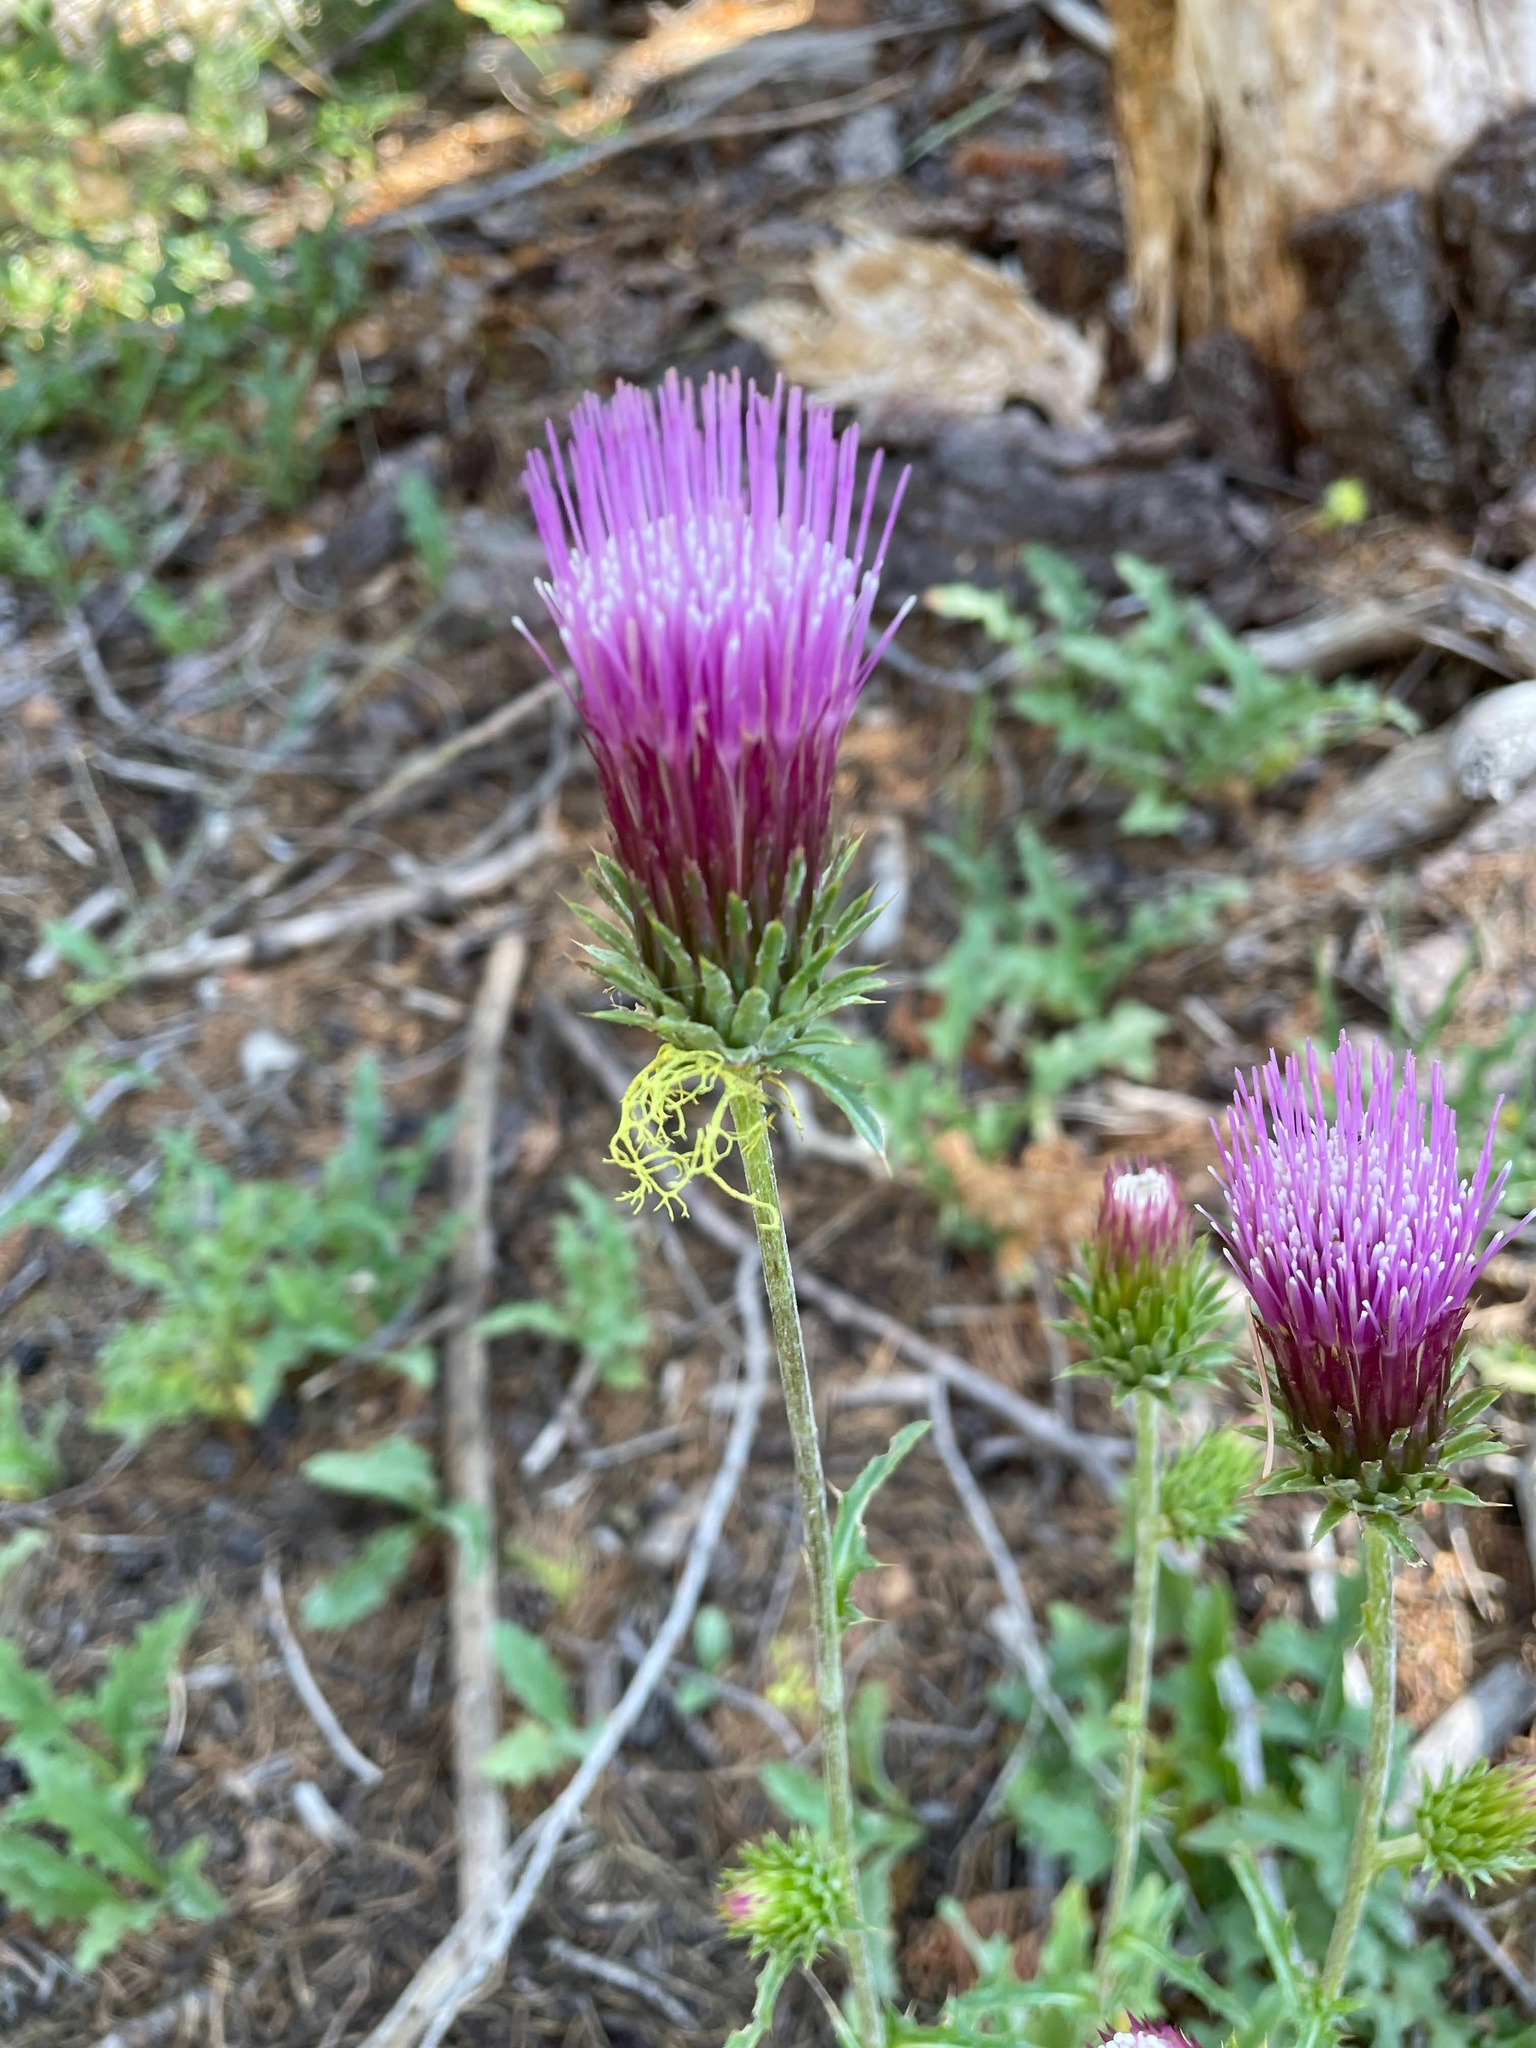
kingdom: Plantae
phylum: Tracheophyta
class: Magnoliopsida
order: Asterales
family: Asteraceae
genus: Cirsium
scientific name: Cirsium andersonii
